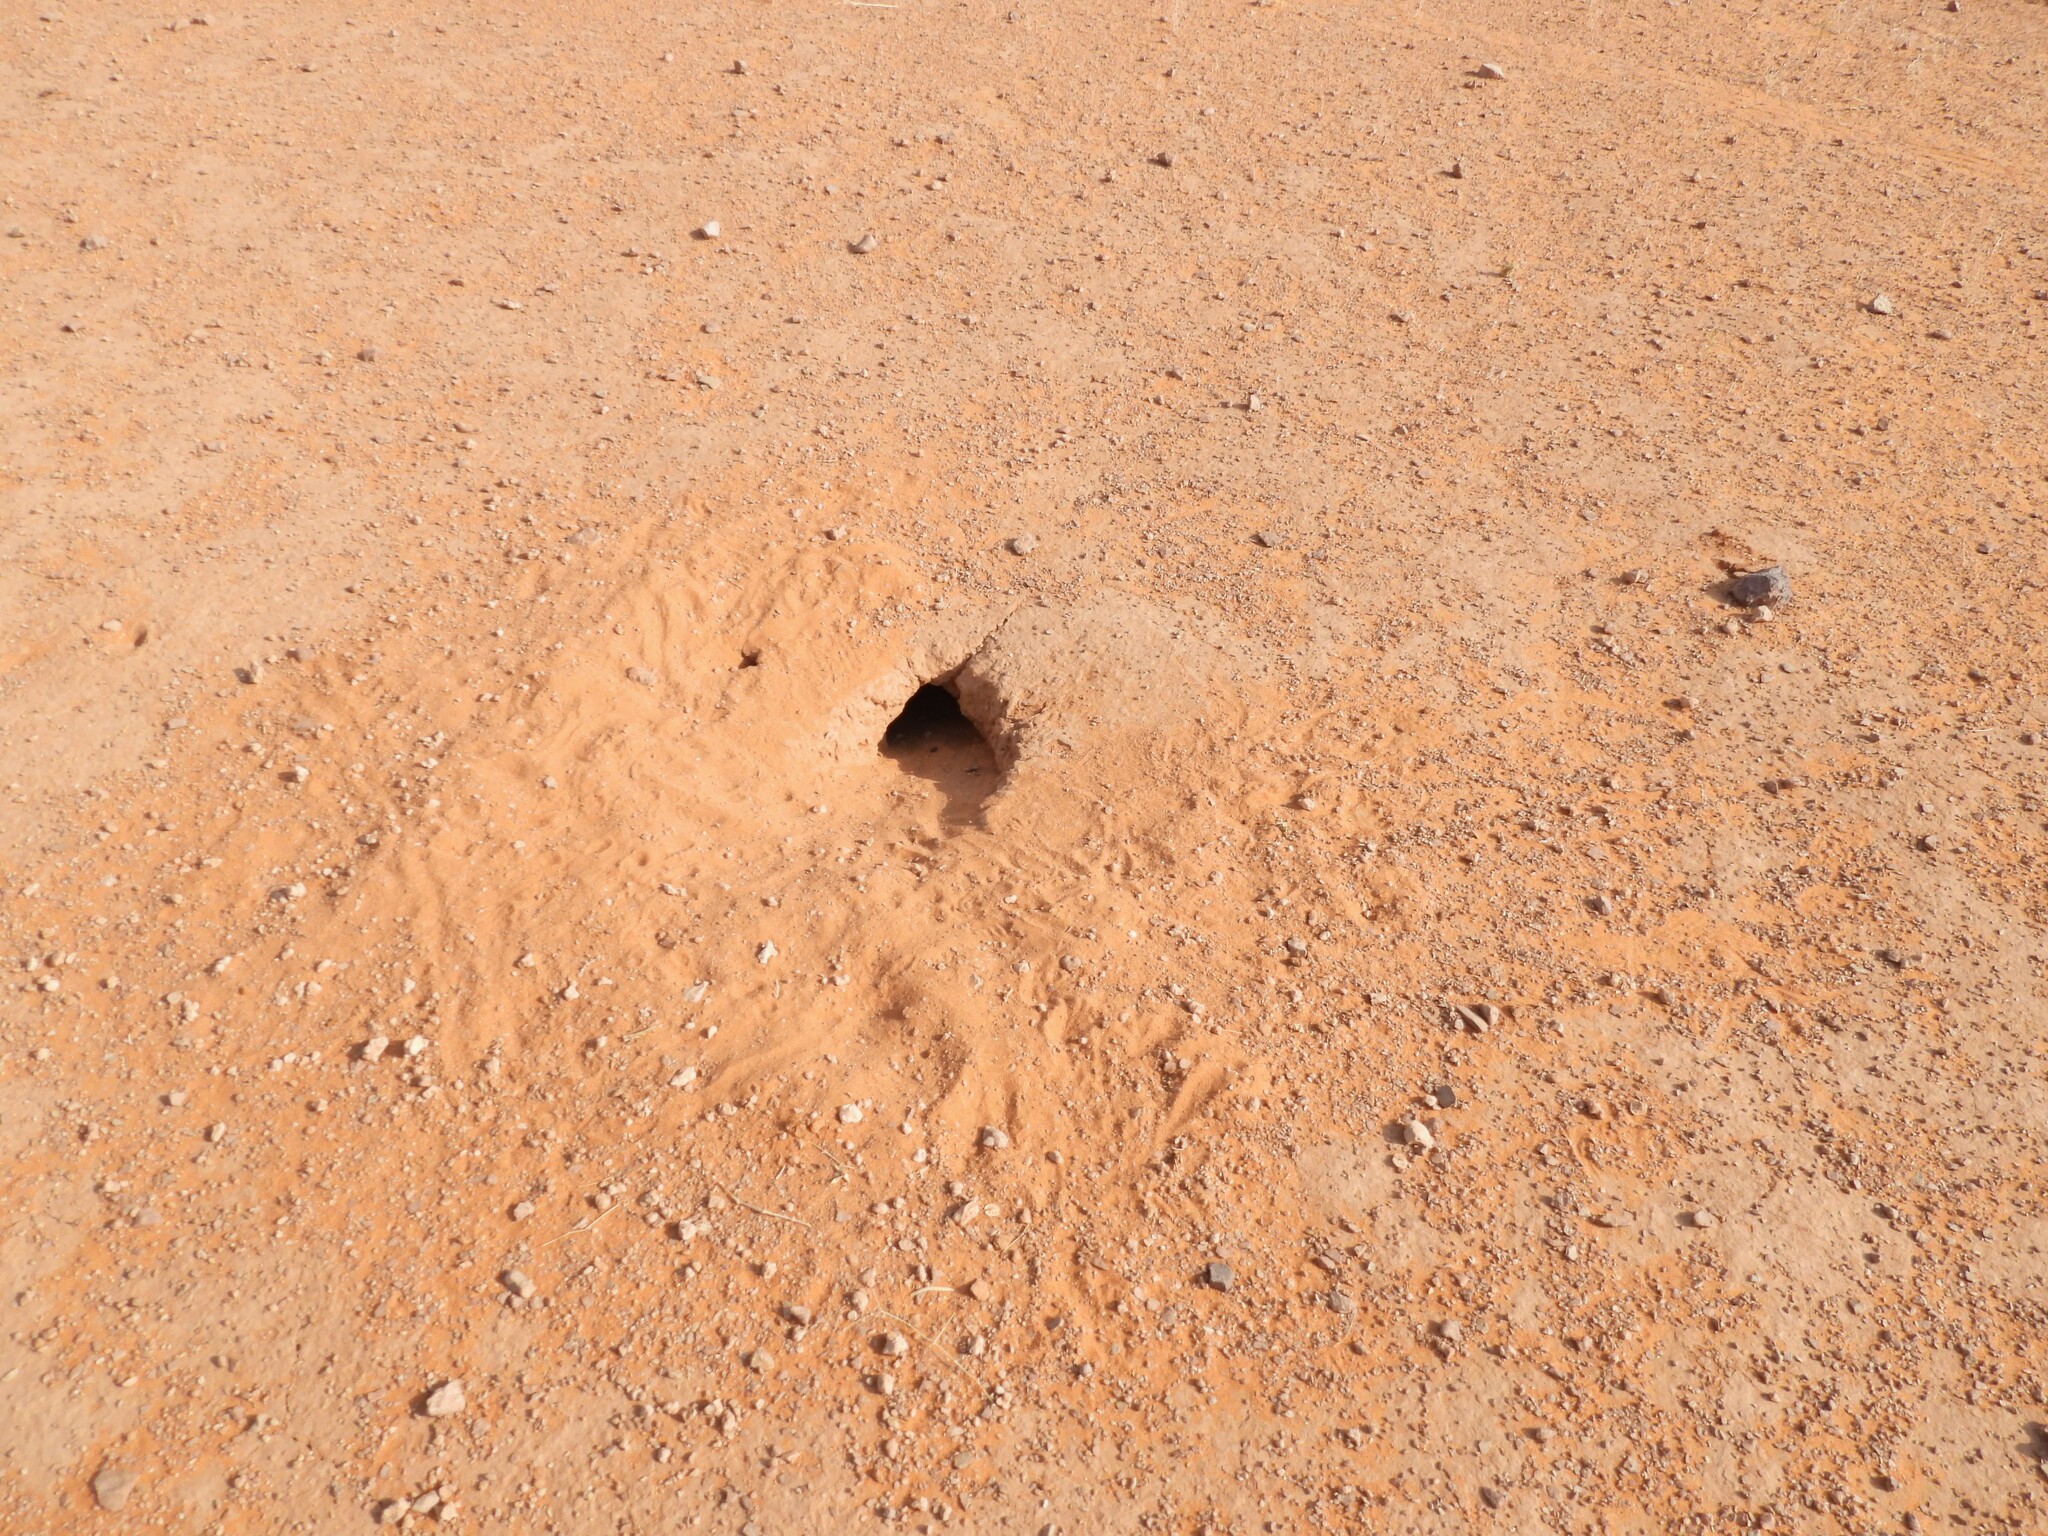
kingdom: Animalia
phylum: Chordata
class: Squamata
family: Agamidae
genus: Uromastyx
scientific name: Uromastyx aegyptia
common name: Egyptian mastigure
